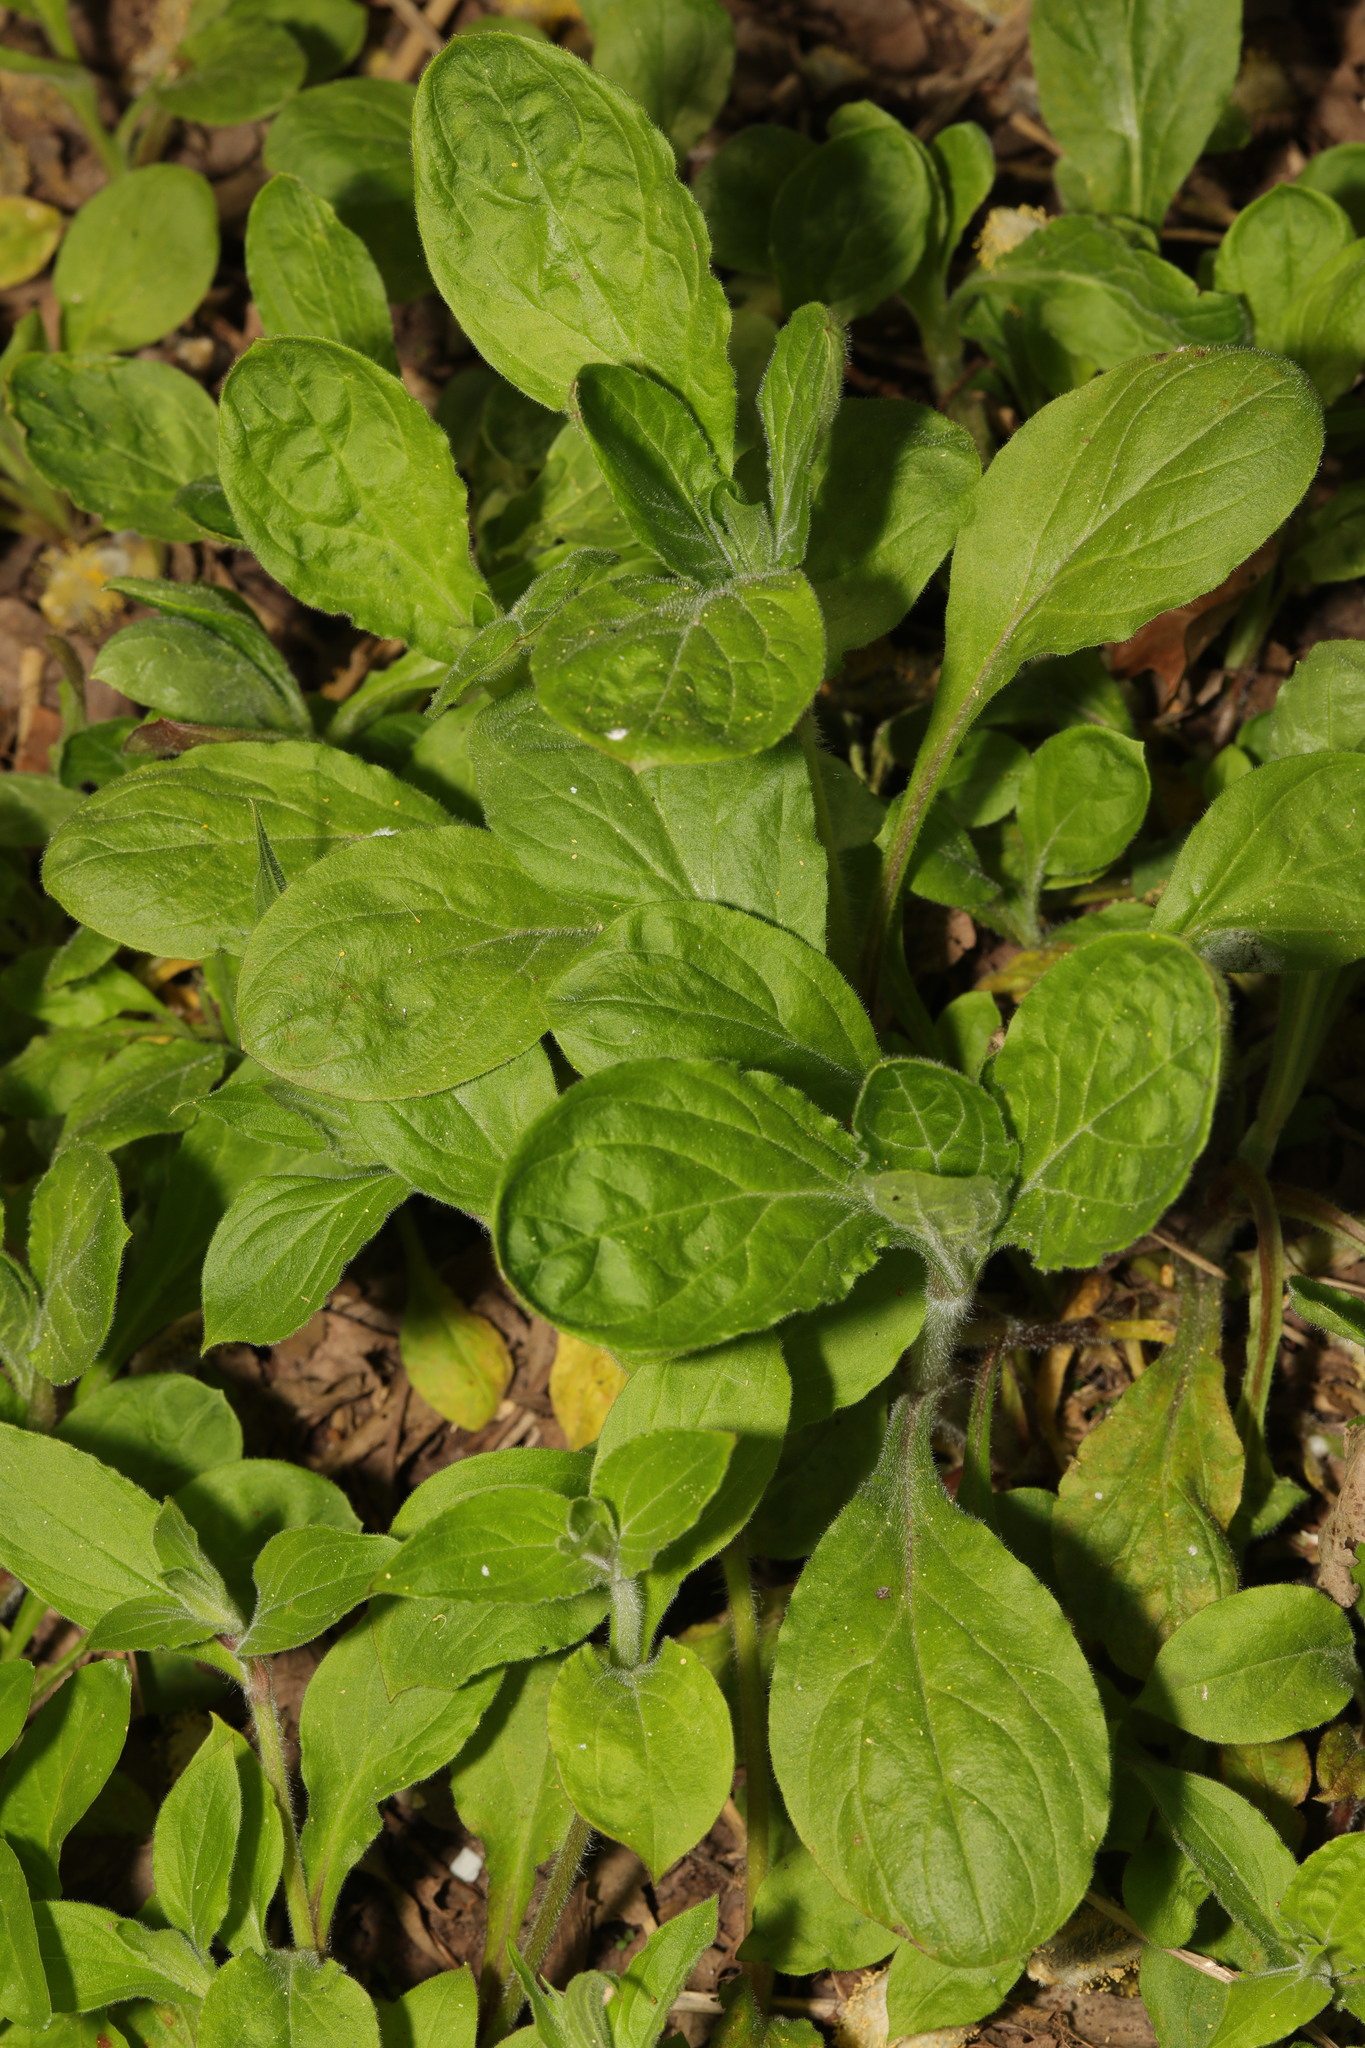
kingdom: Plantae
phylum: Tracheophyta
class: Magnoliopsida
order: Caryophyllales
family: Caryophyllaceae
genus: Silene
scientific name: Silene dioica
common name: Red campion
